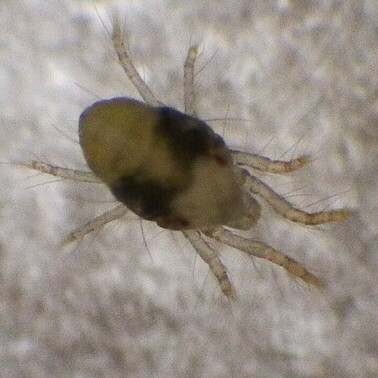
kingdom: Animalia
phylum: Arthropoda
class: Arachnida
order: Trombidiformes
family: Tetranychidae
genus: Tetranychus
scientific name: Tetranychus urticae
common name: Carmine spider mite
